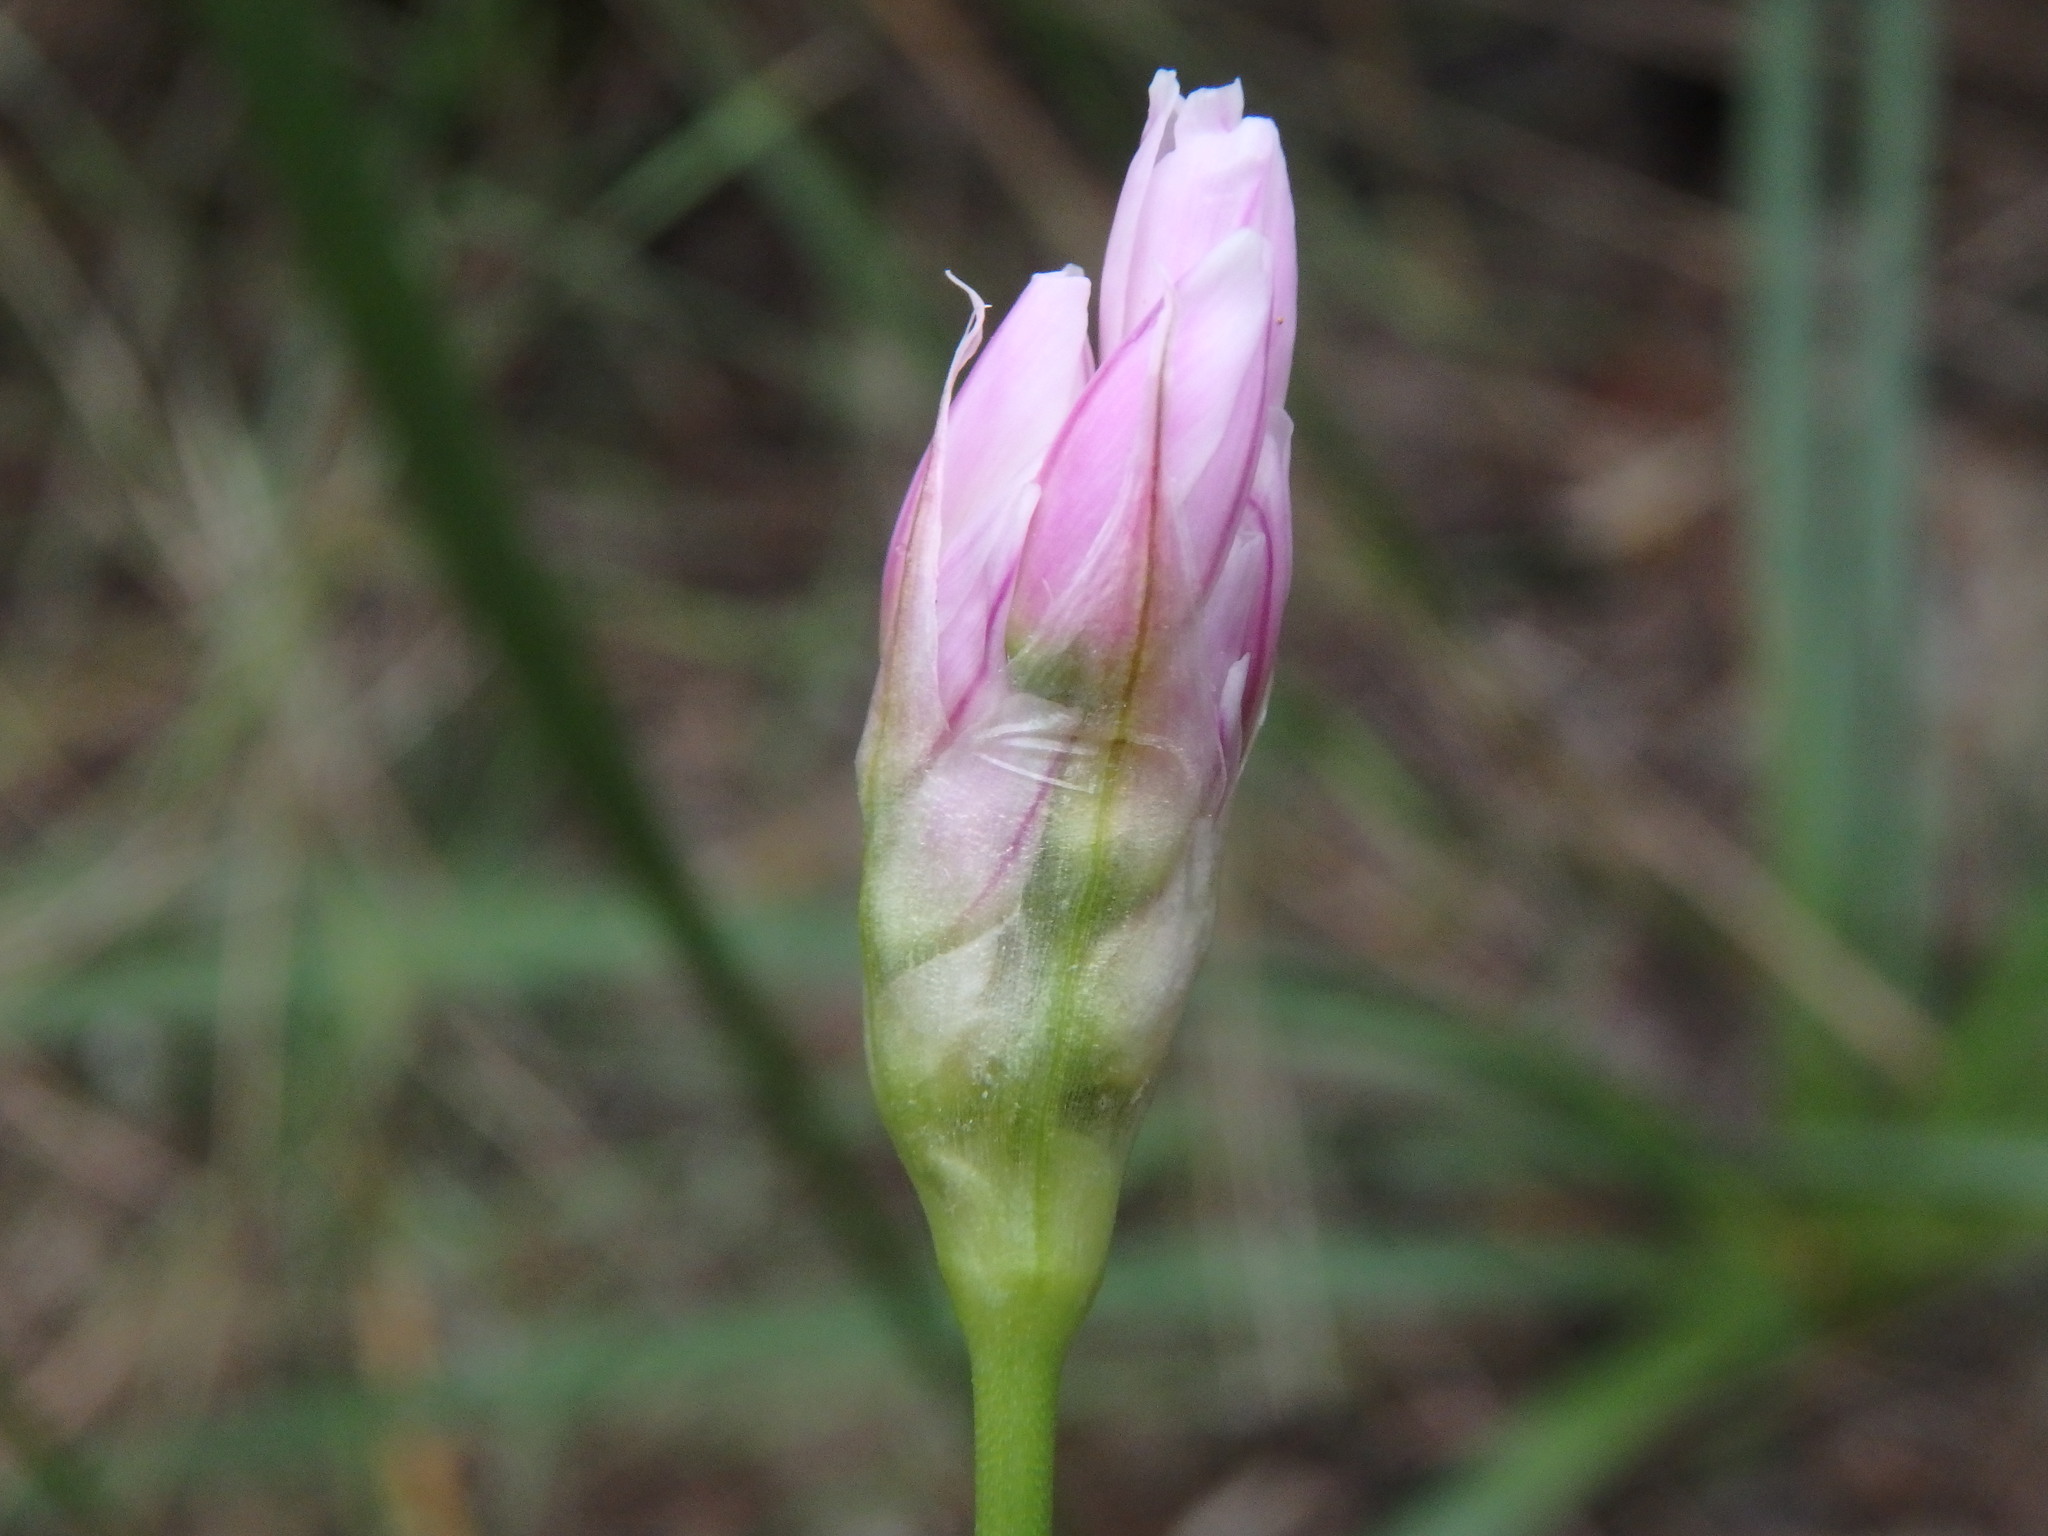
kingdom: Plantae
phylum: Tracheophyta
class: Liliopsida
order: Asparagales
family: Amaryllidaceae
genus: Allium
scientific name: Allium roseum
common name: Rosy garlic
